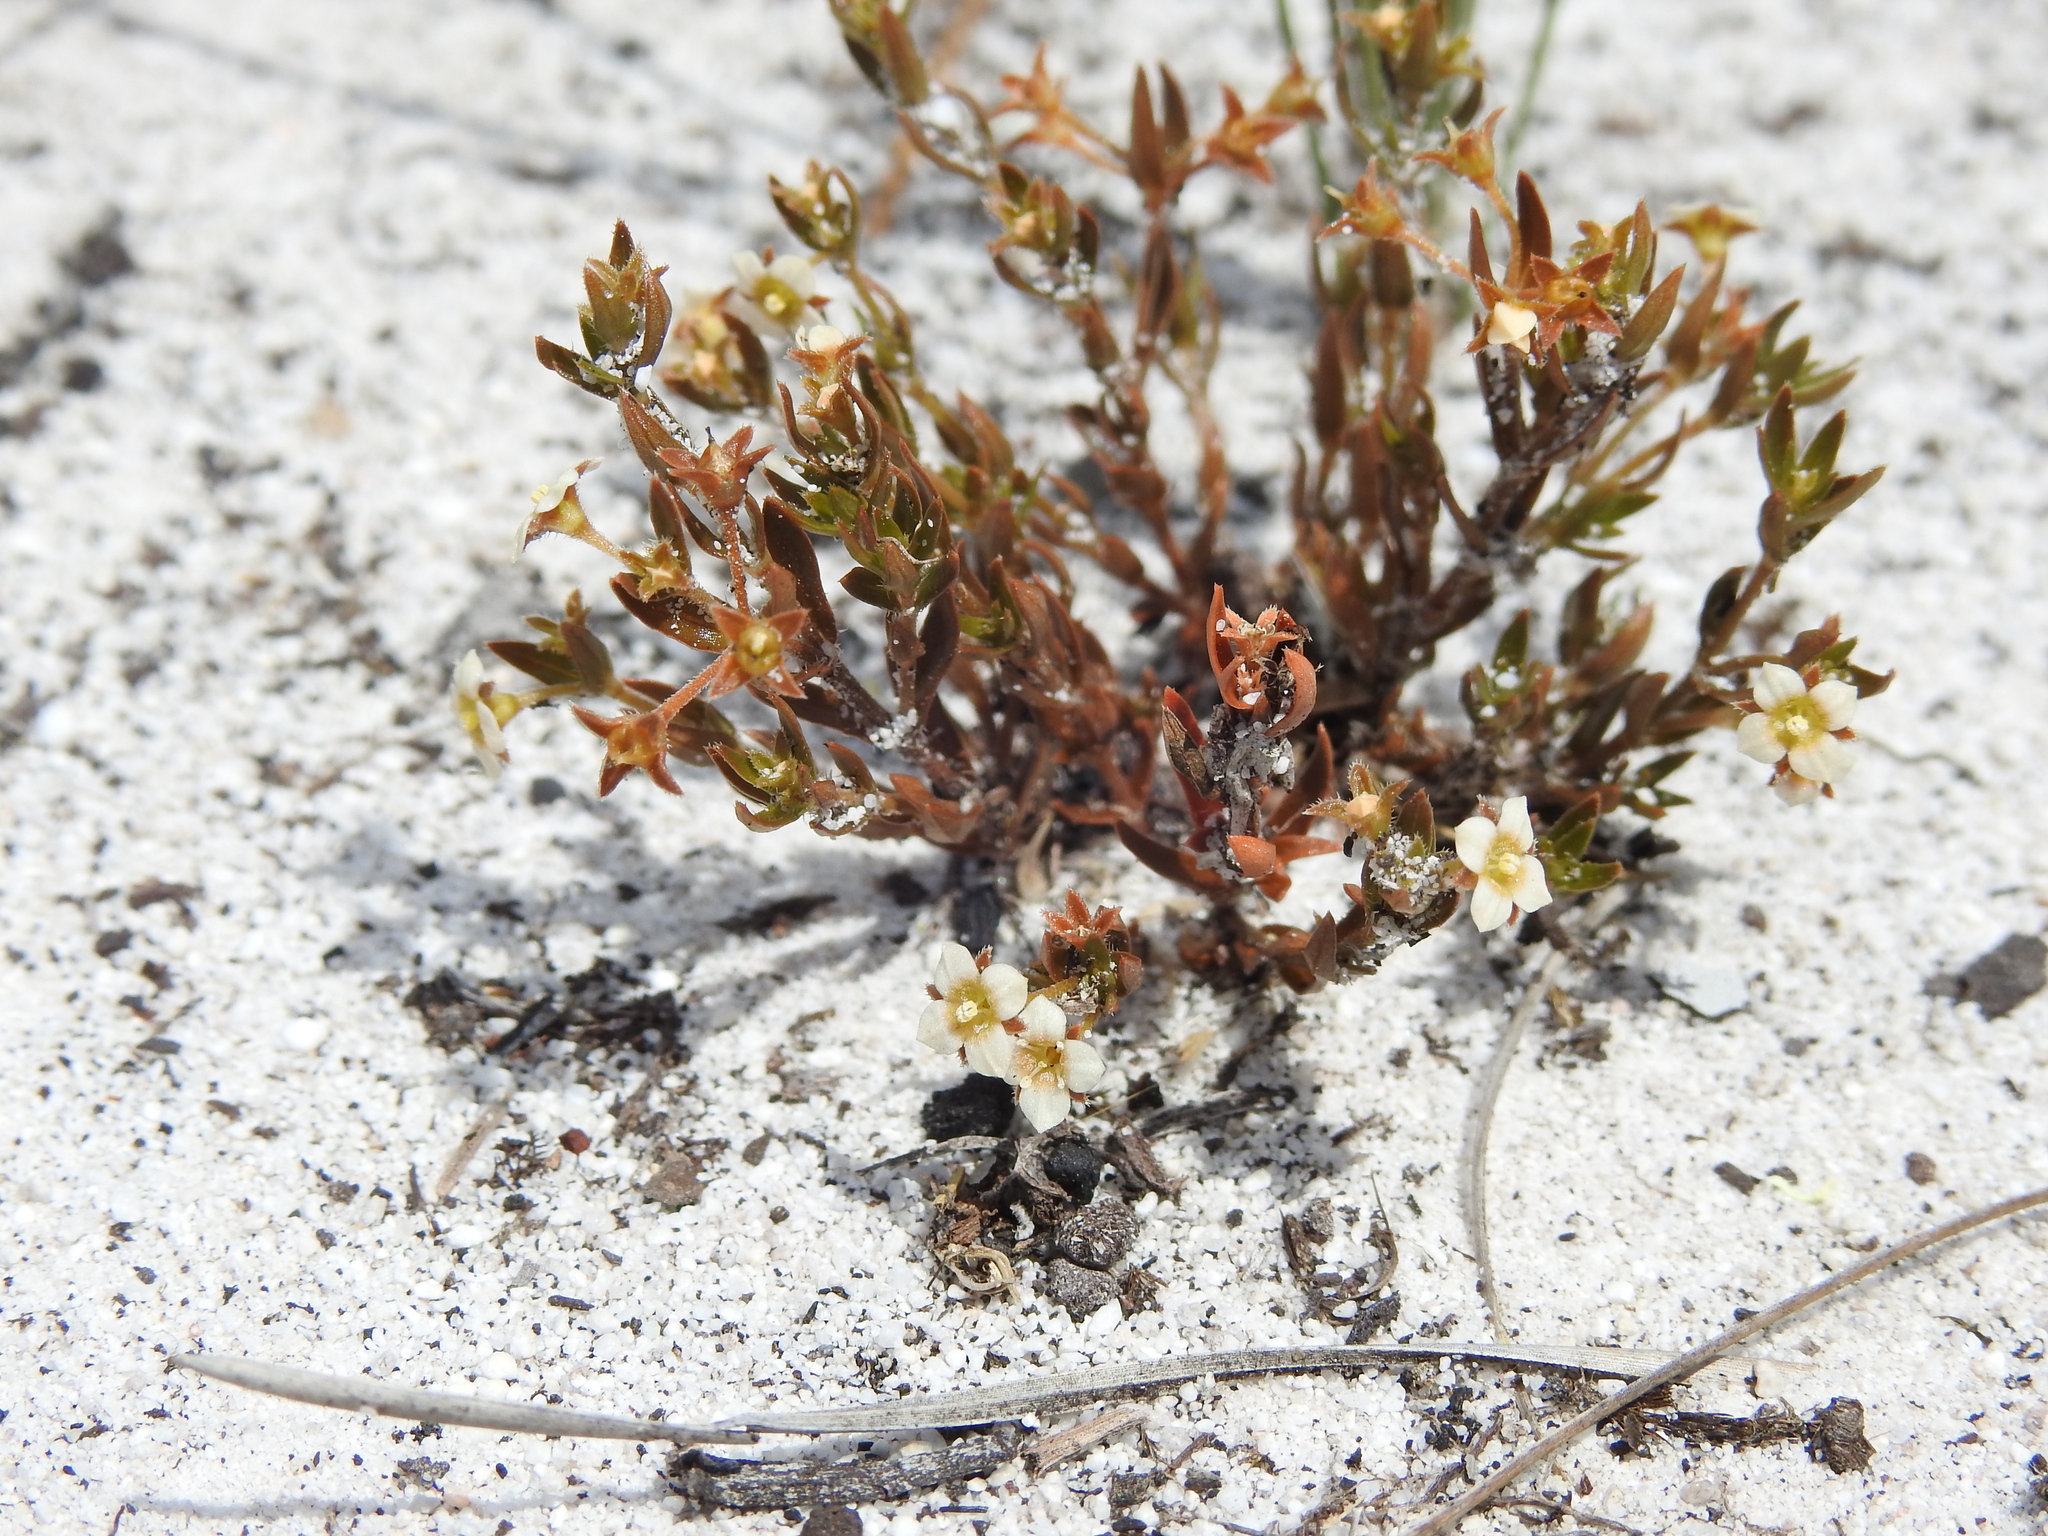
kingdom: Plantae
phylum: Tracheophyta
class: Magnoliopsida
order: Gentianales
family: Loganiaceae
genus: Mitrasacme
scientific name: Mitrasacme paludosa
